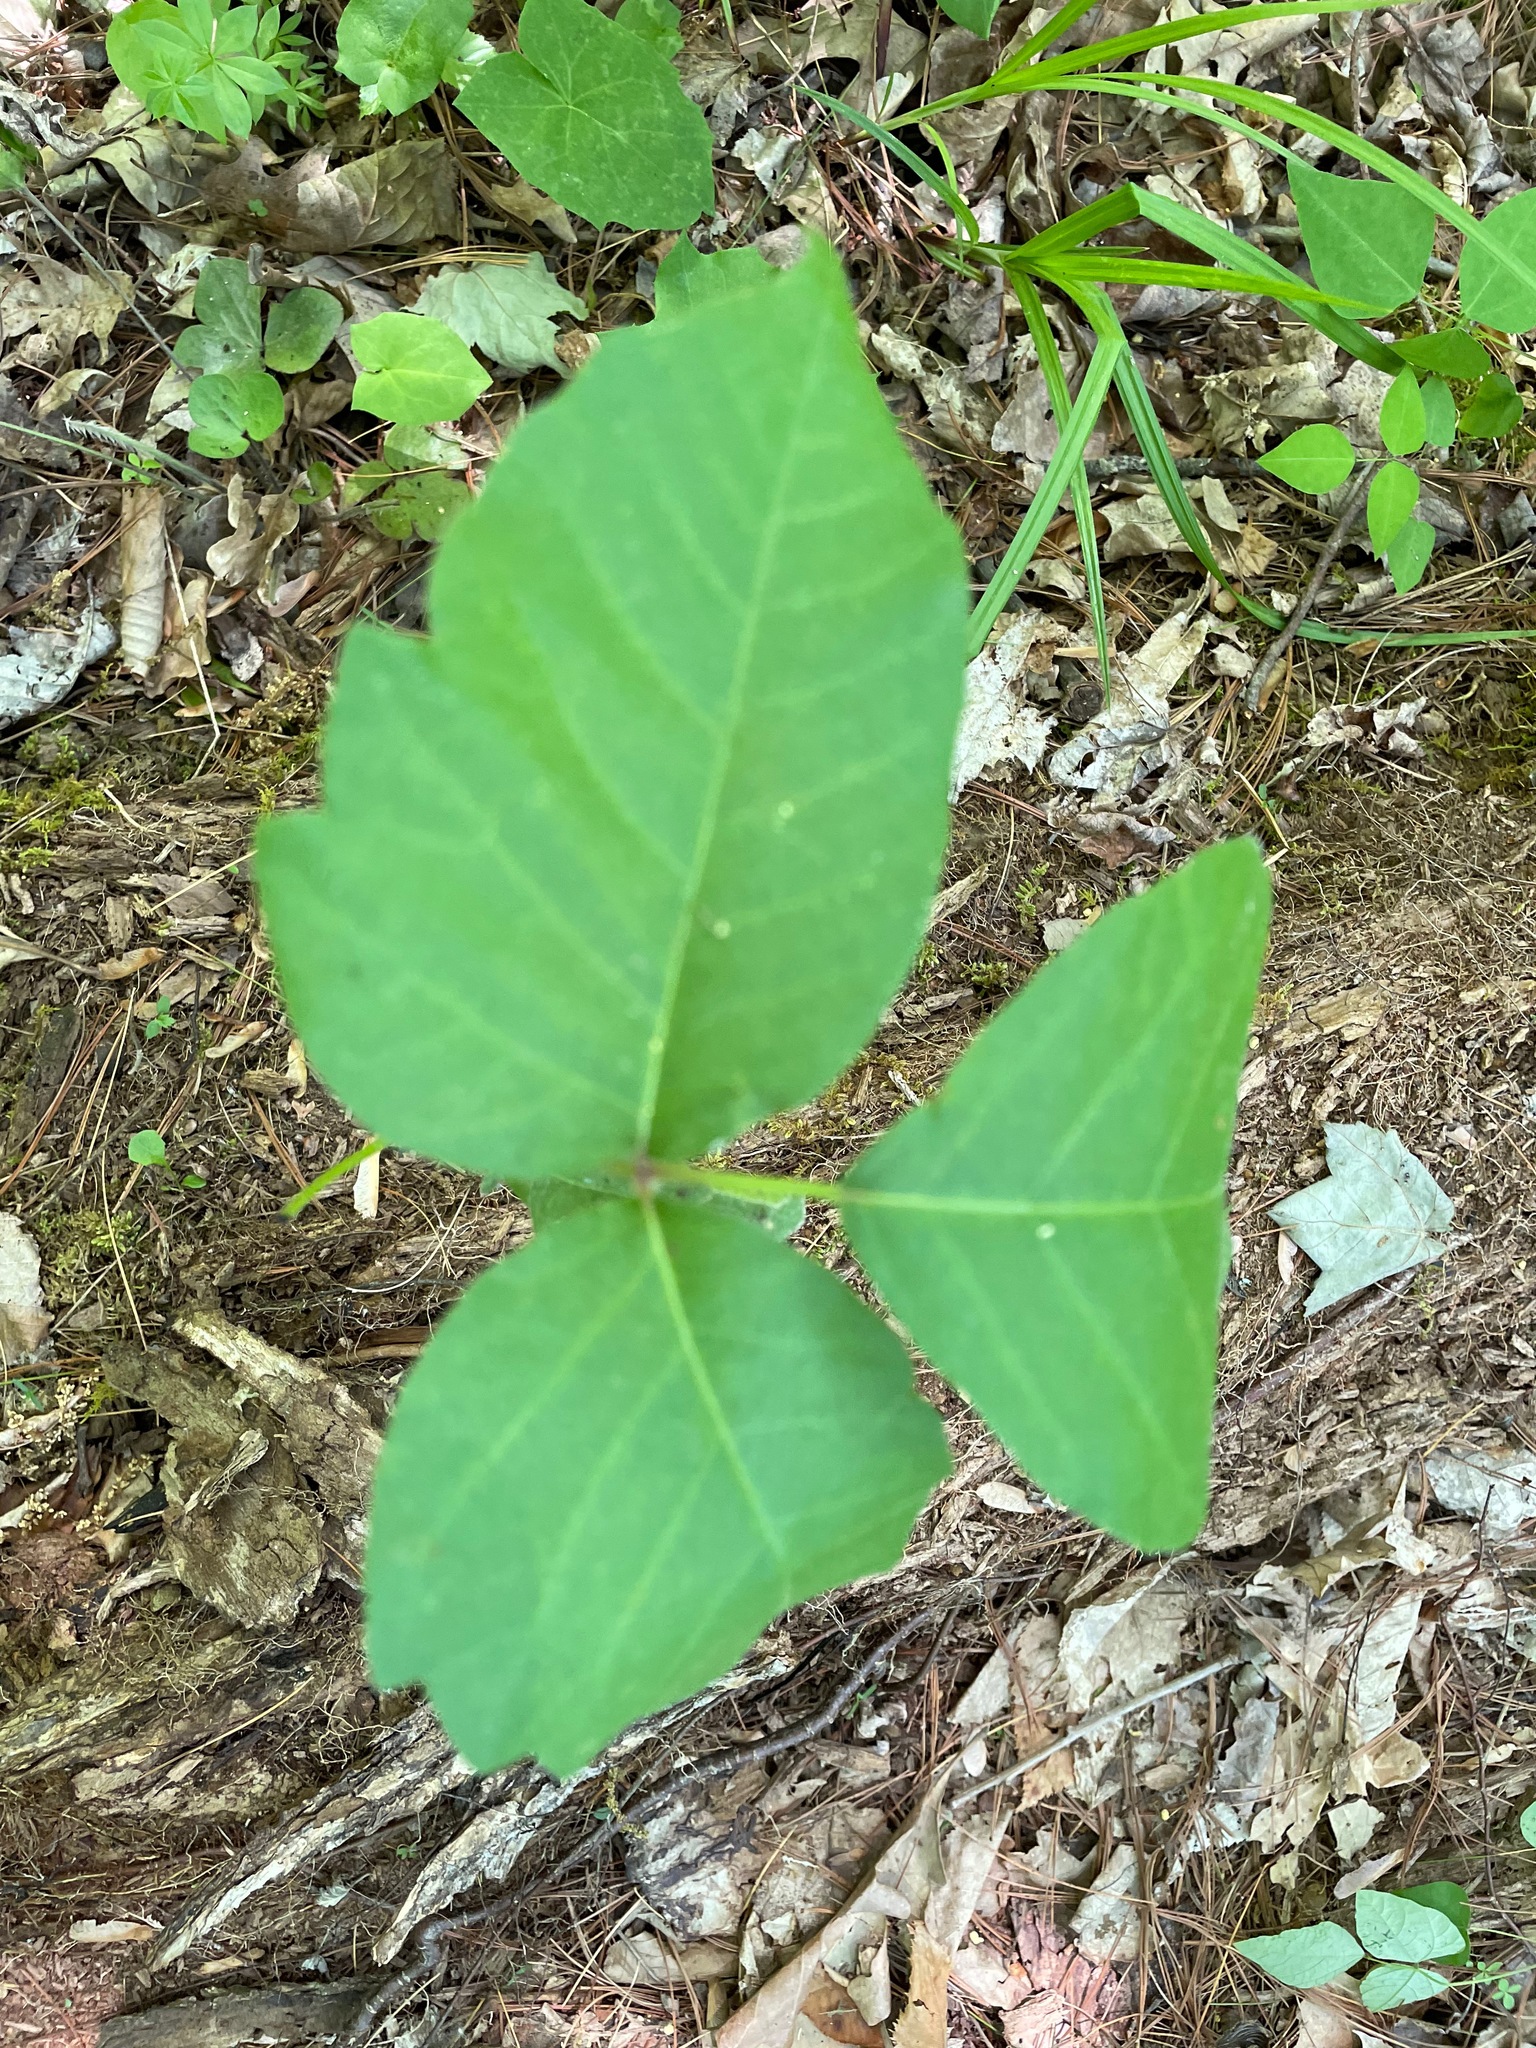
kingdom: Plantae
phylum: Tracheophyta
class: Magnoliopsida
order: Sapindales
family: Anacardiaceae
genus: Toxicodendron
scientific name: Toxicodendron rydbergii
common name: Rydberg's poison-ivy
